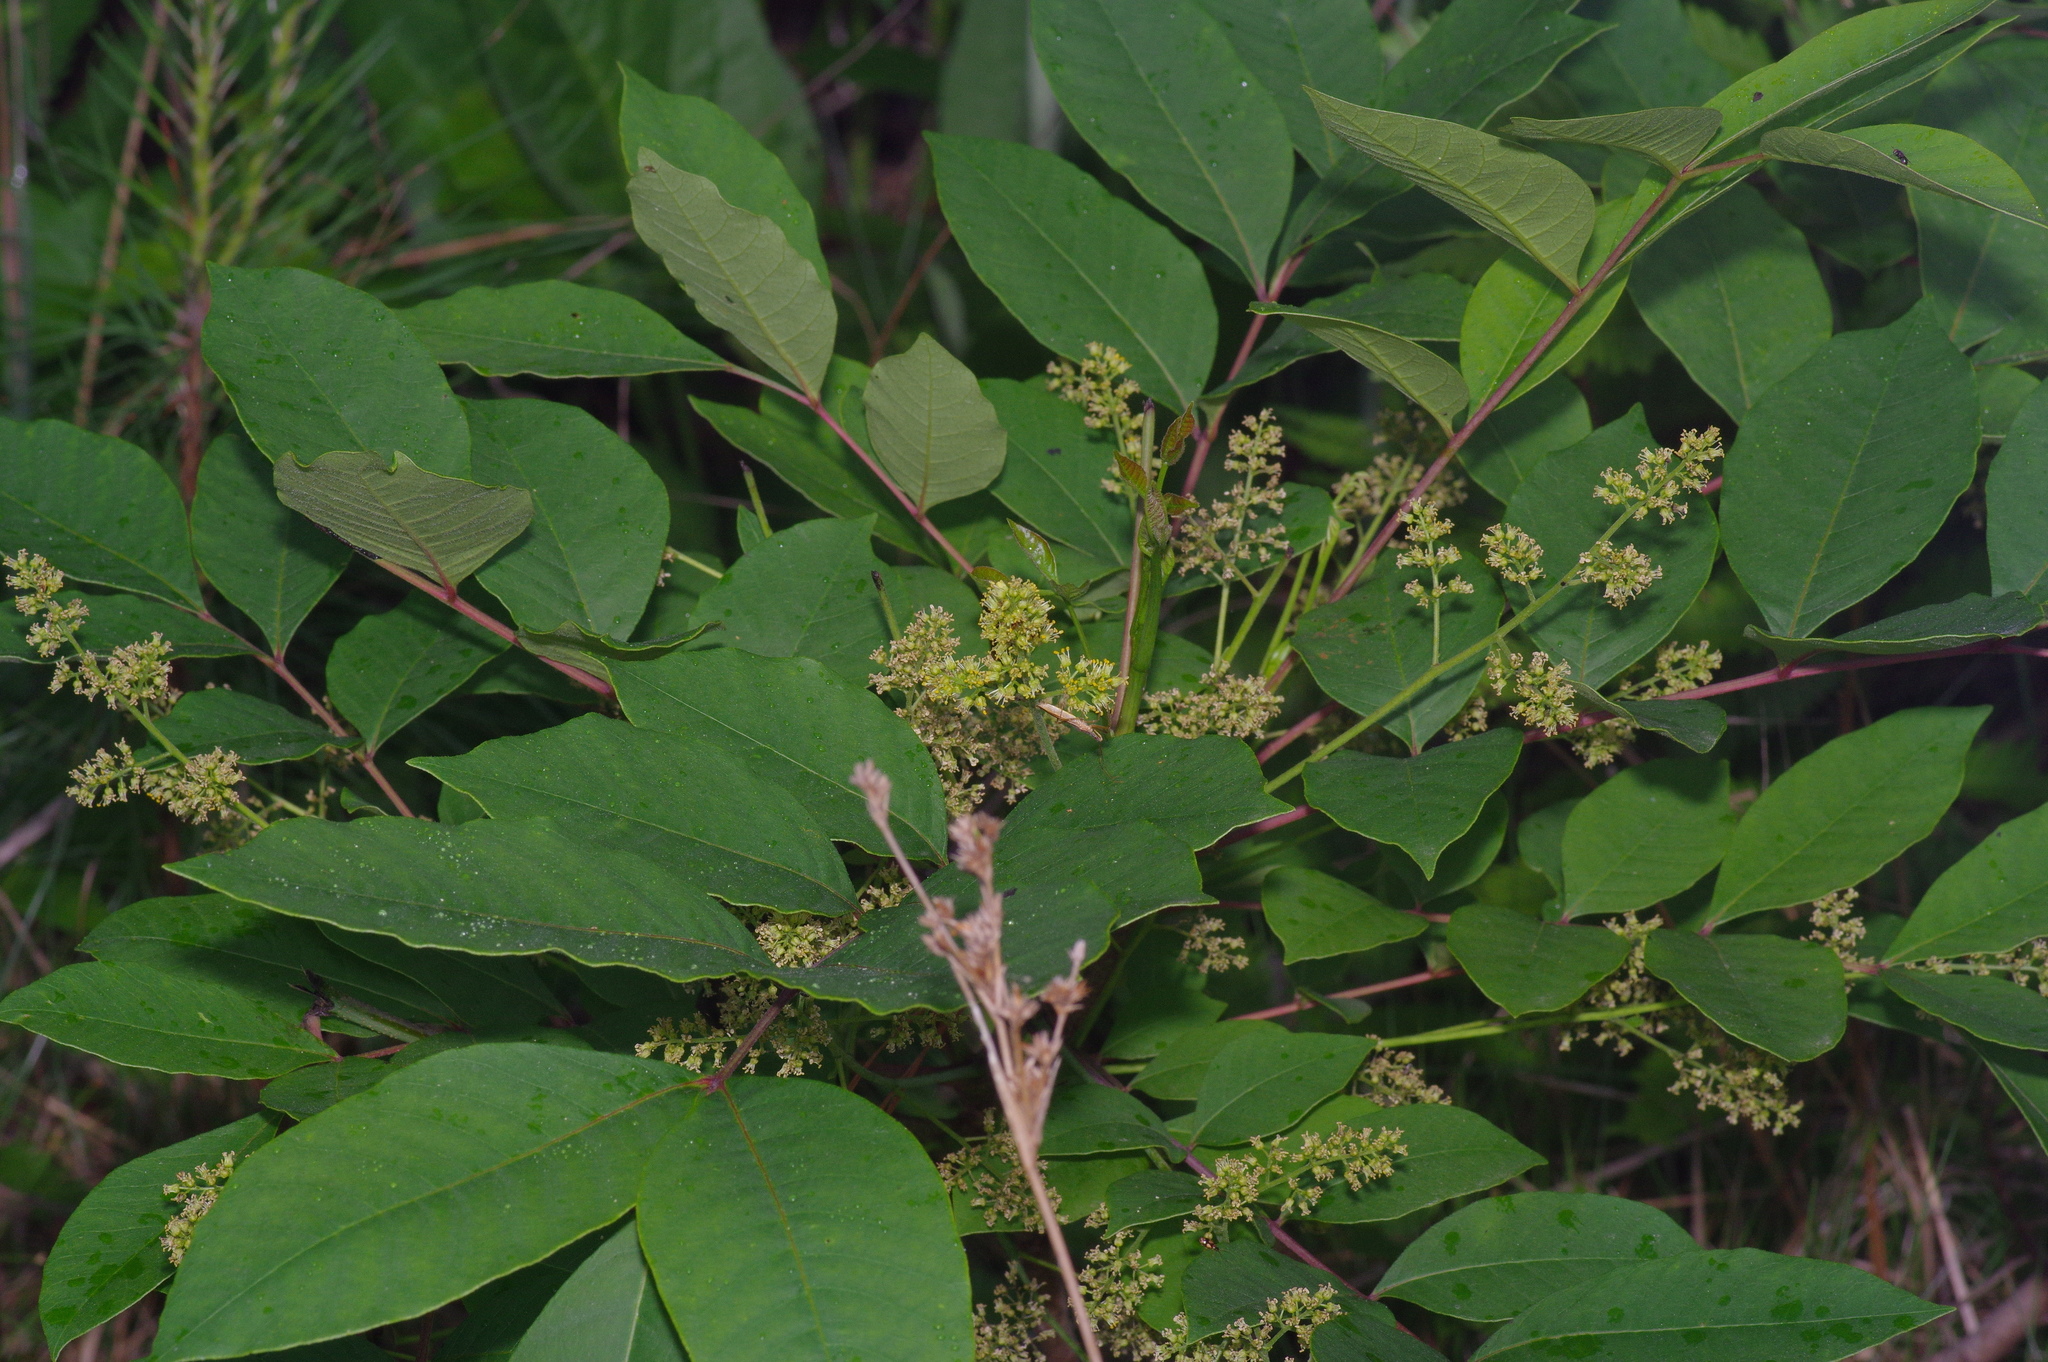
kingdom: Plantae
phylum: Tracheophyta
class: Magnoliopsida
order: Sapindales
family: Anacardiaceae
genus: Toxicodendron
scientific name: Toxicodendron vernix
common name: Poison sumac
